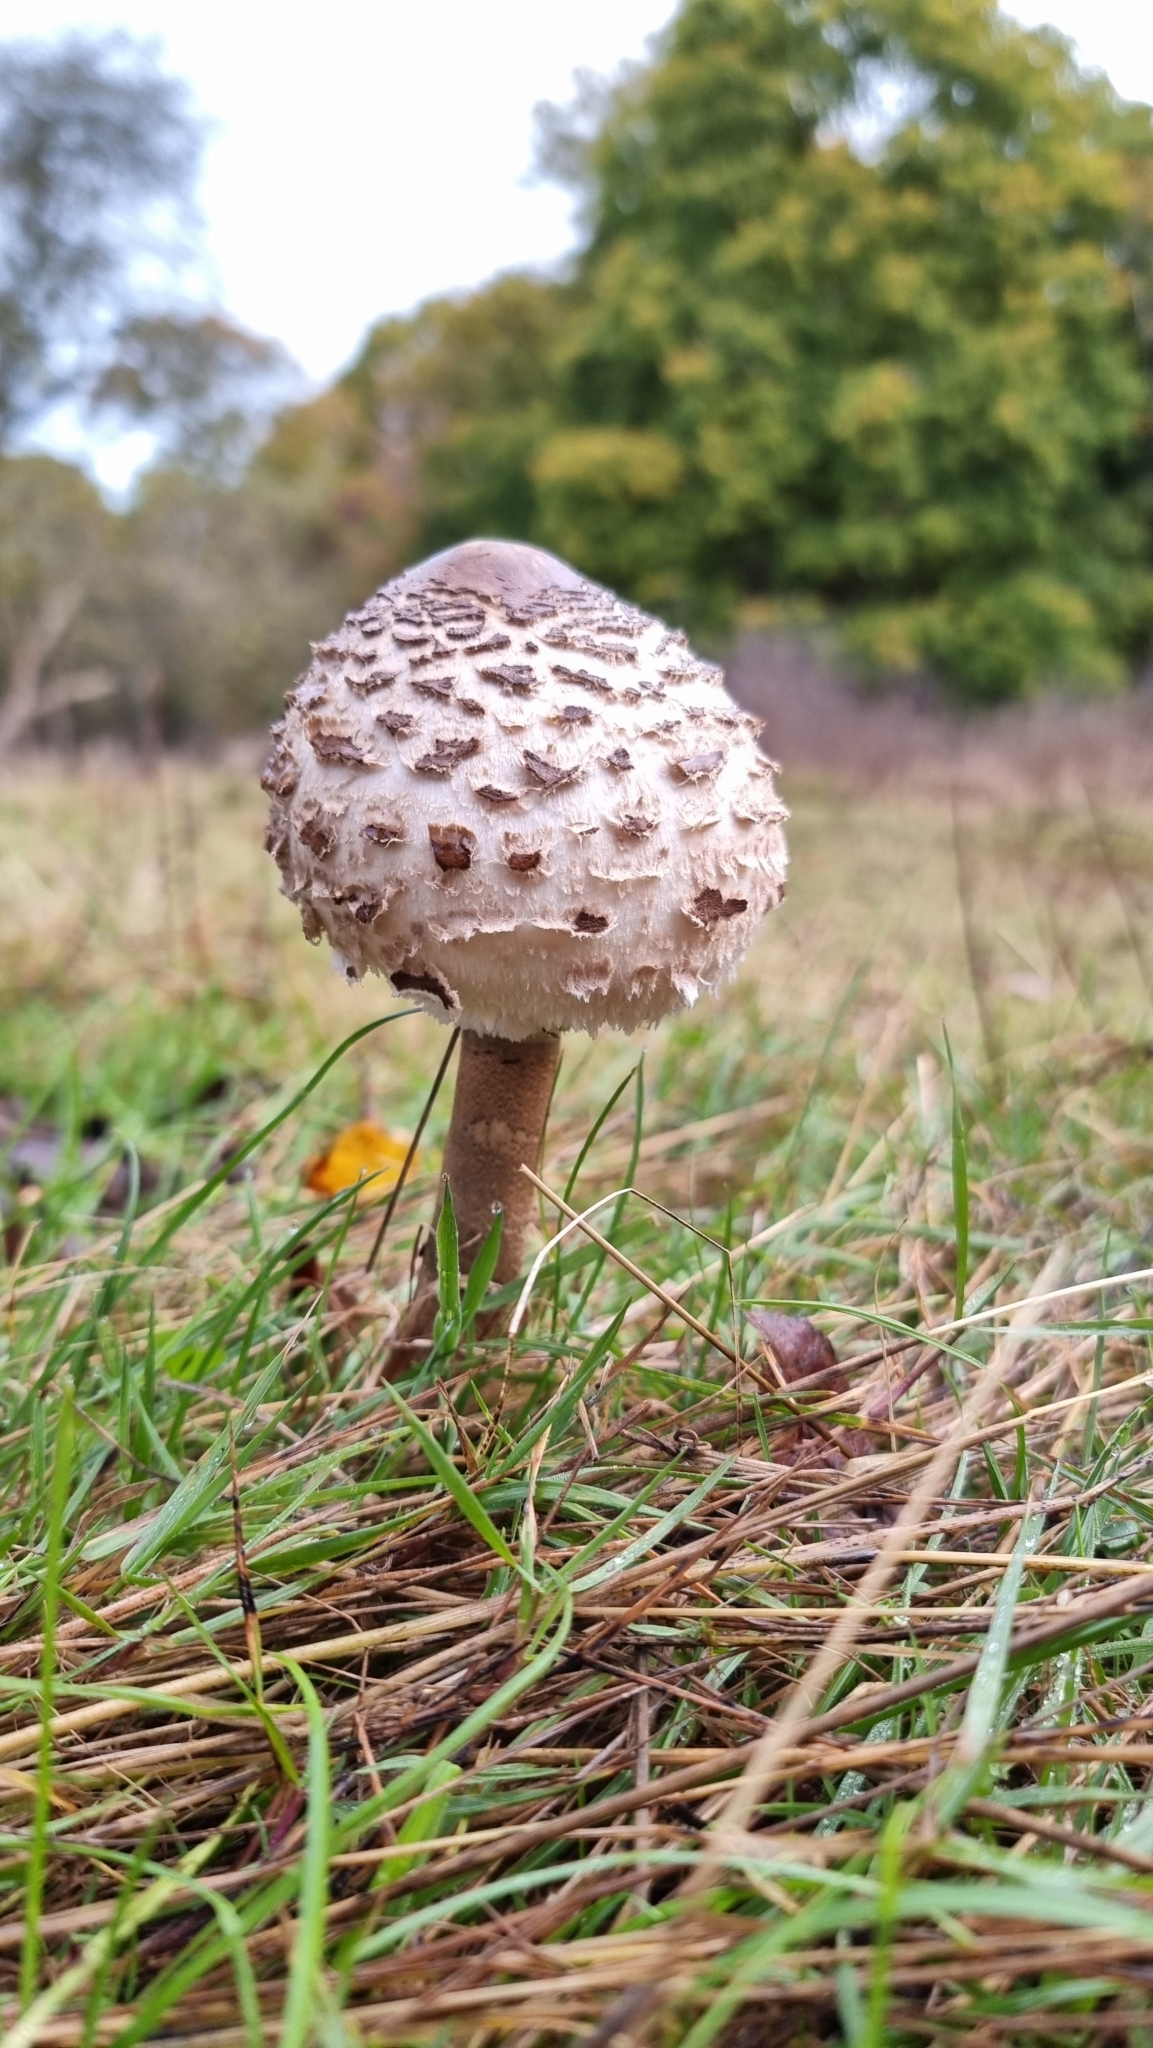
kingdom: Fungi
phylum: Basidiomycota
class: Agaricomycetes
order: Agaricales
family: Agaricaceae
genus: Macrolepiota
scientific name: Macrolepiota procera
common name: Parasol
